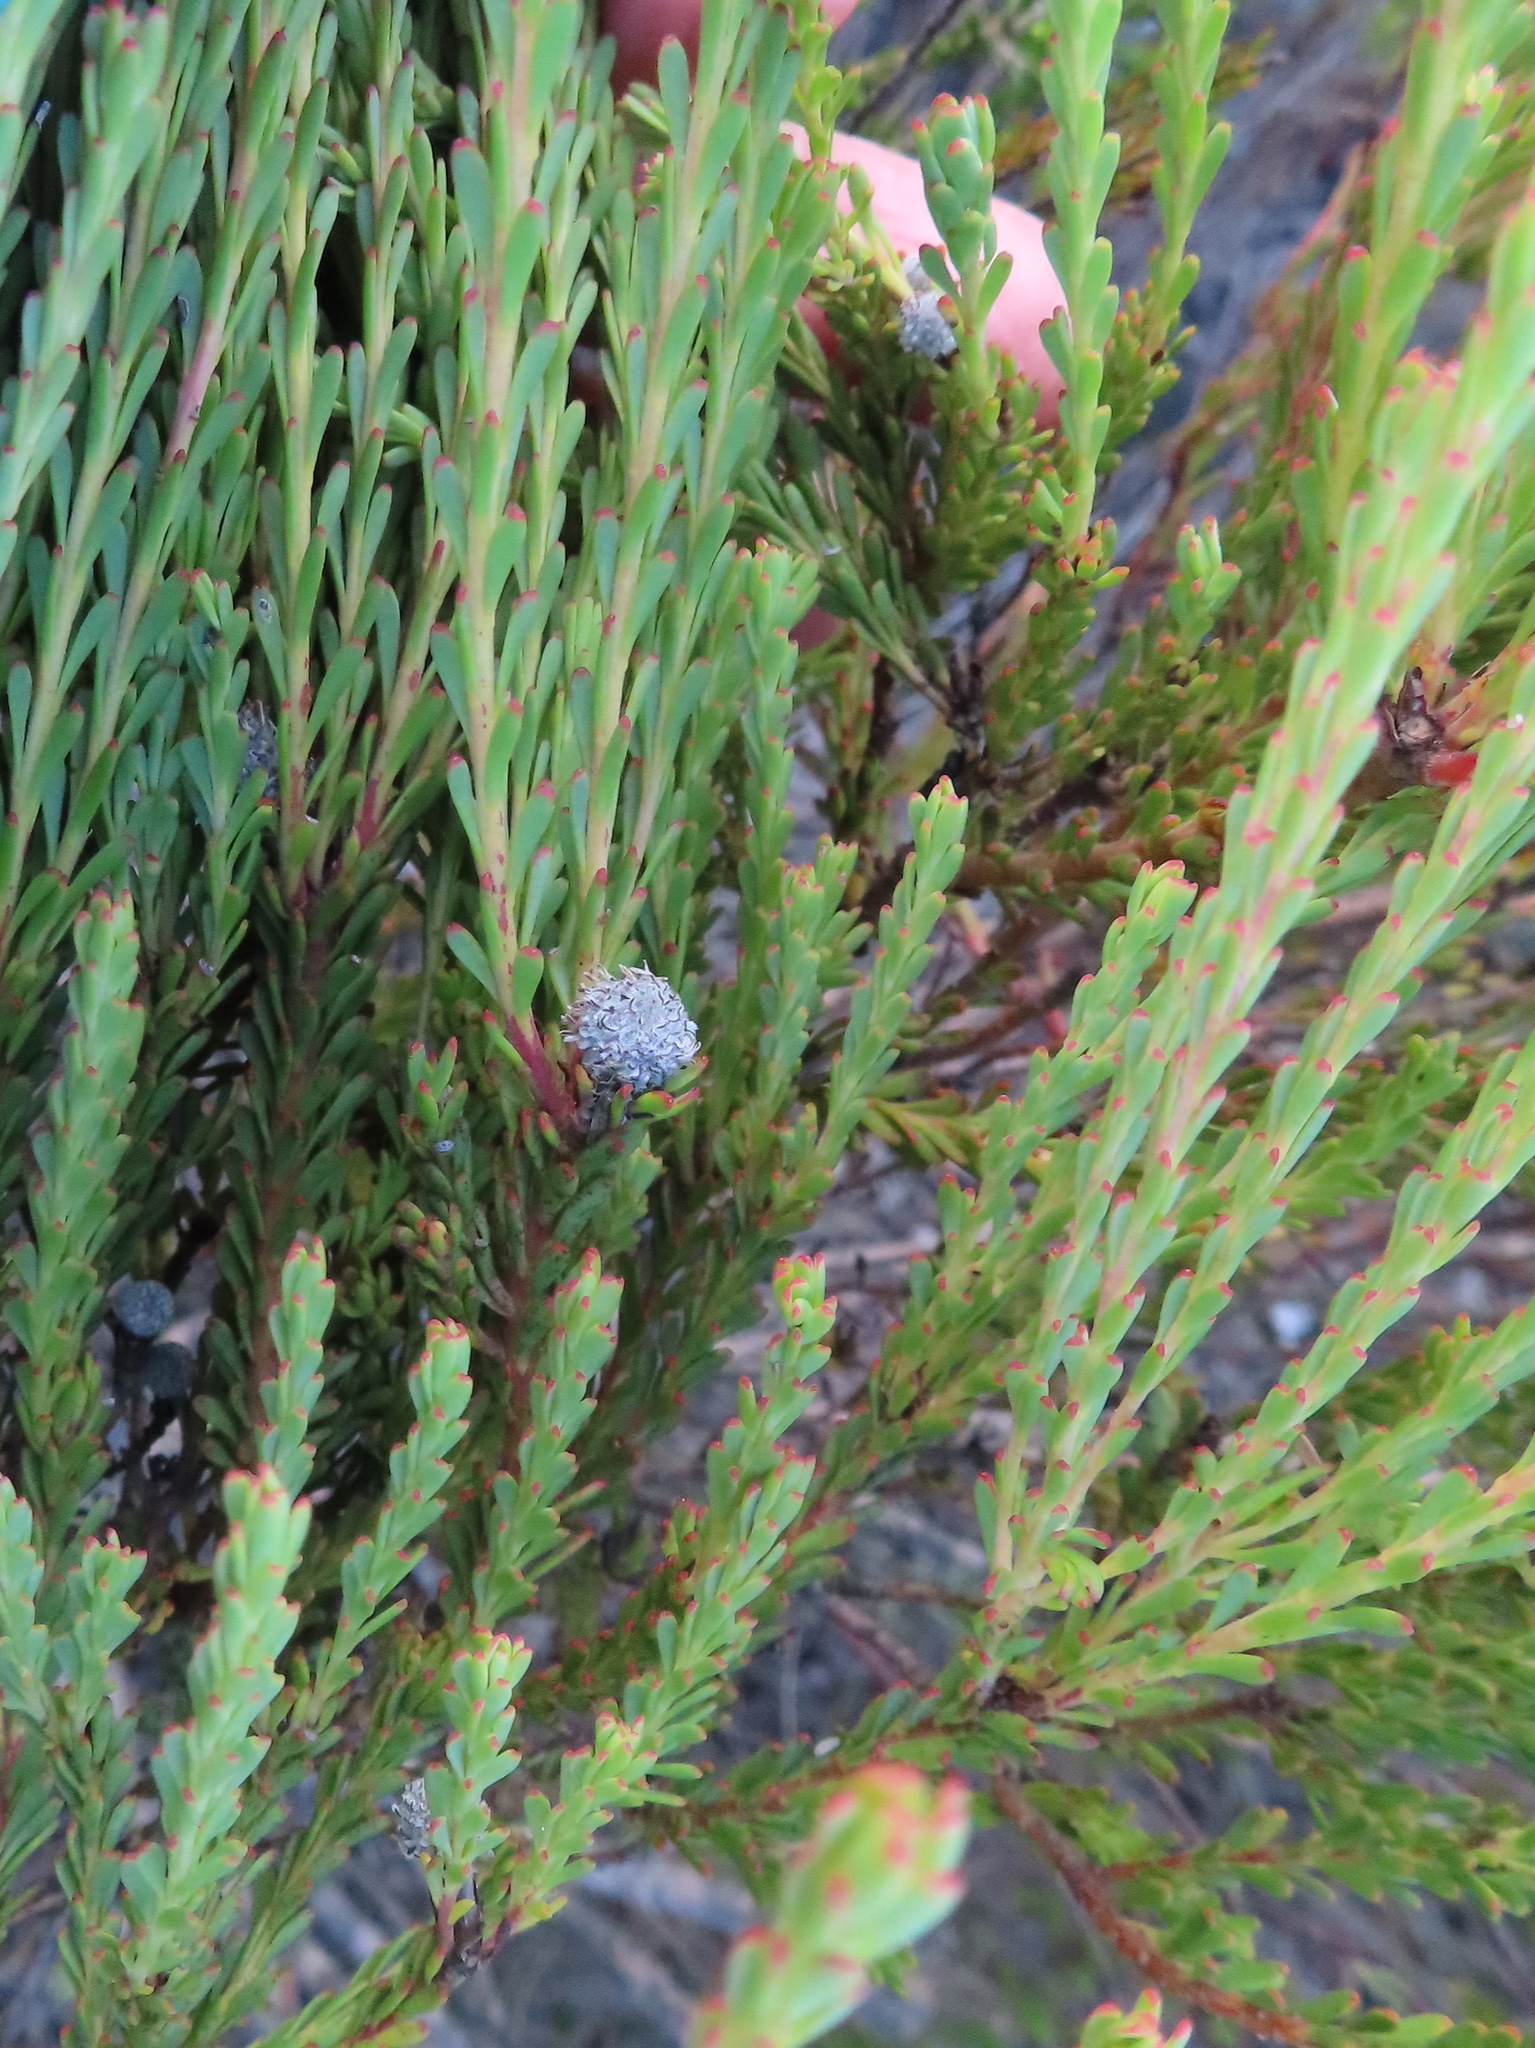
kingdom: Plantae
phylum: Tracheophyta
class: Magnoliopsida
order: Proteales
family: Proteaceae
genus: Leucadendron
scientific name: Leucadendron linifolium
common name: Line-leaf conebush
